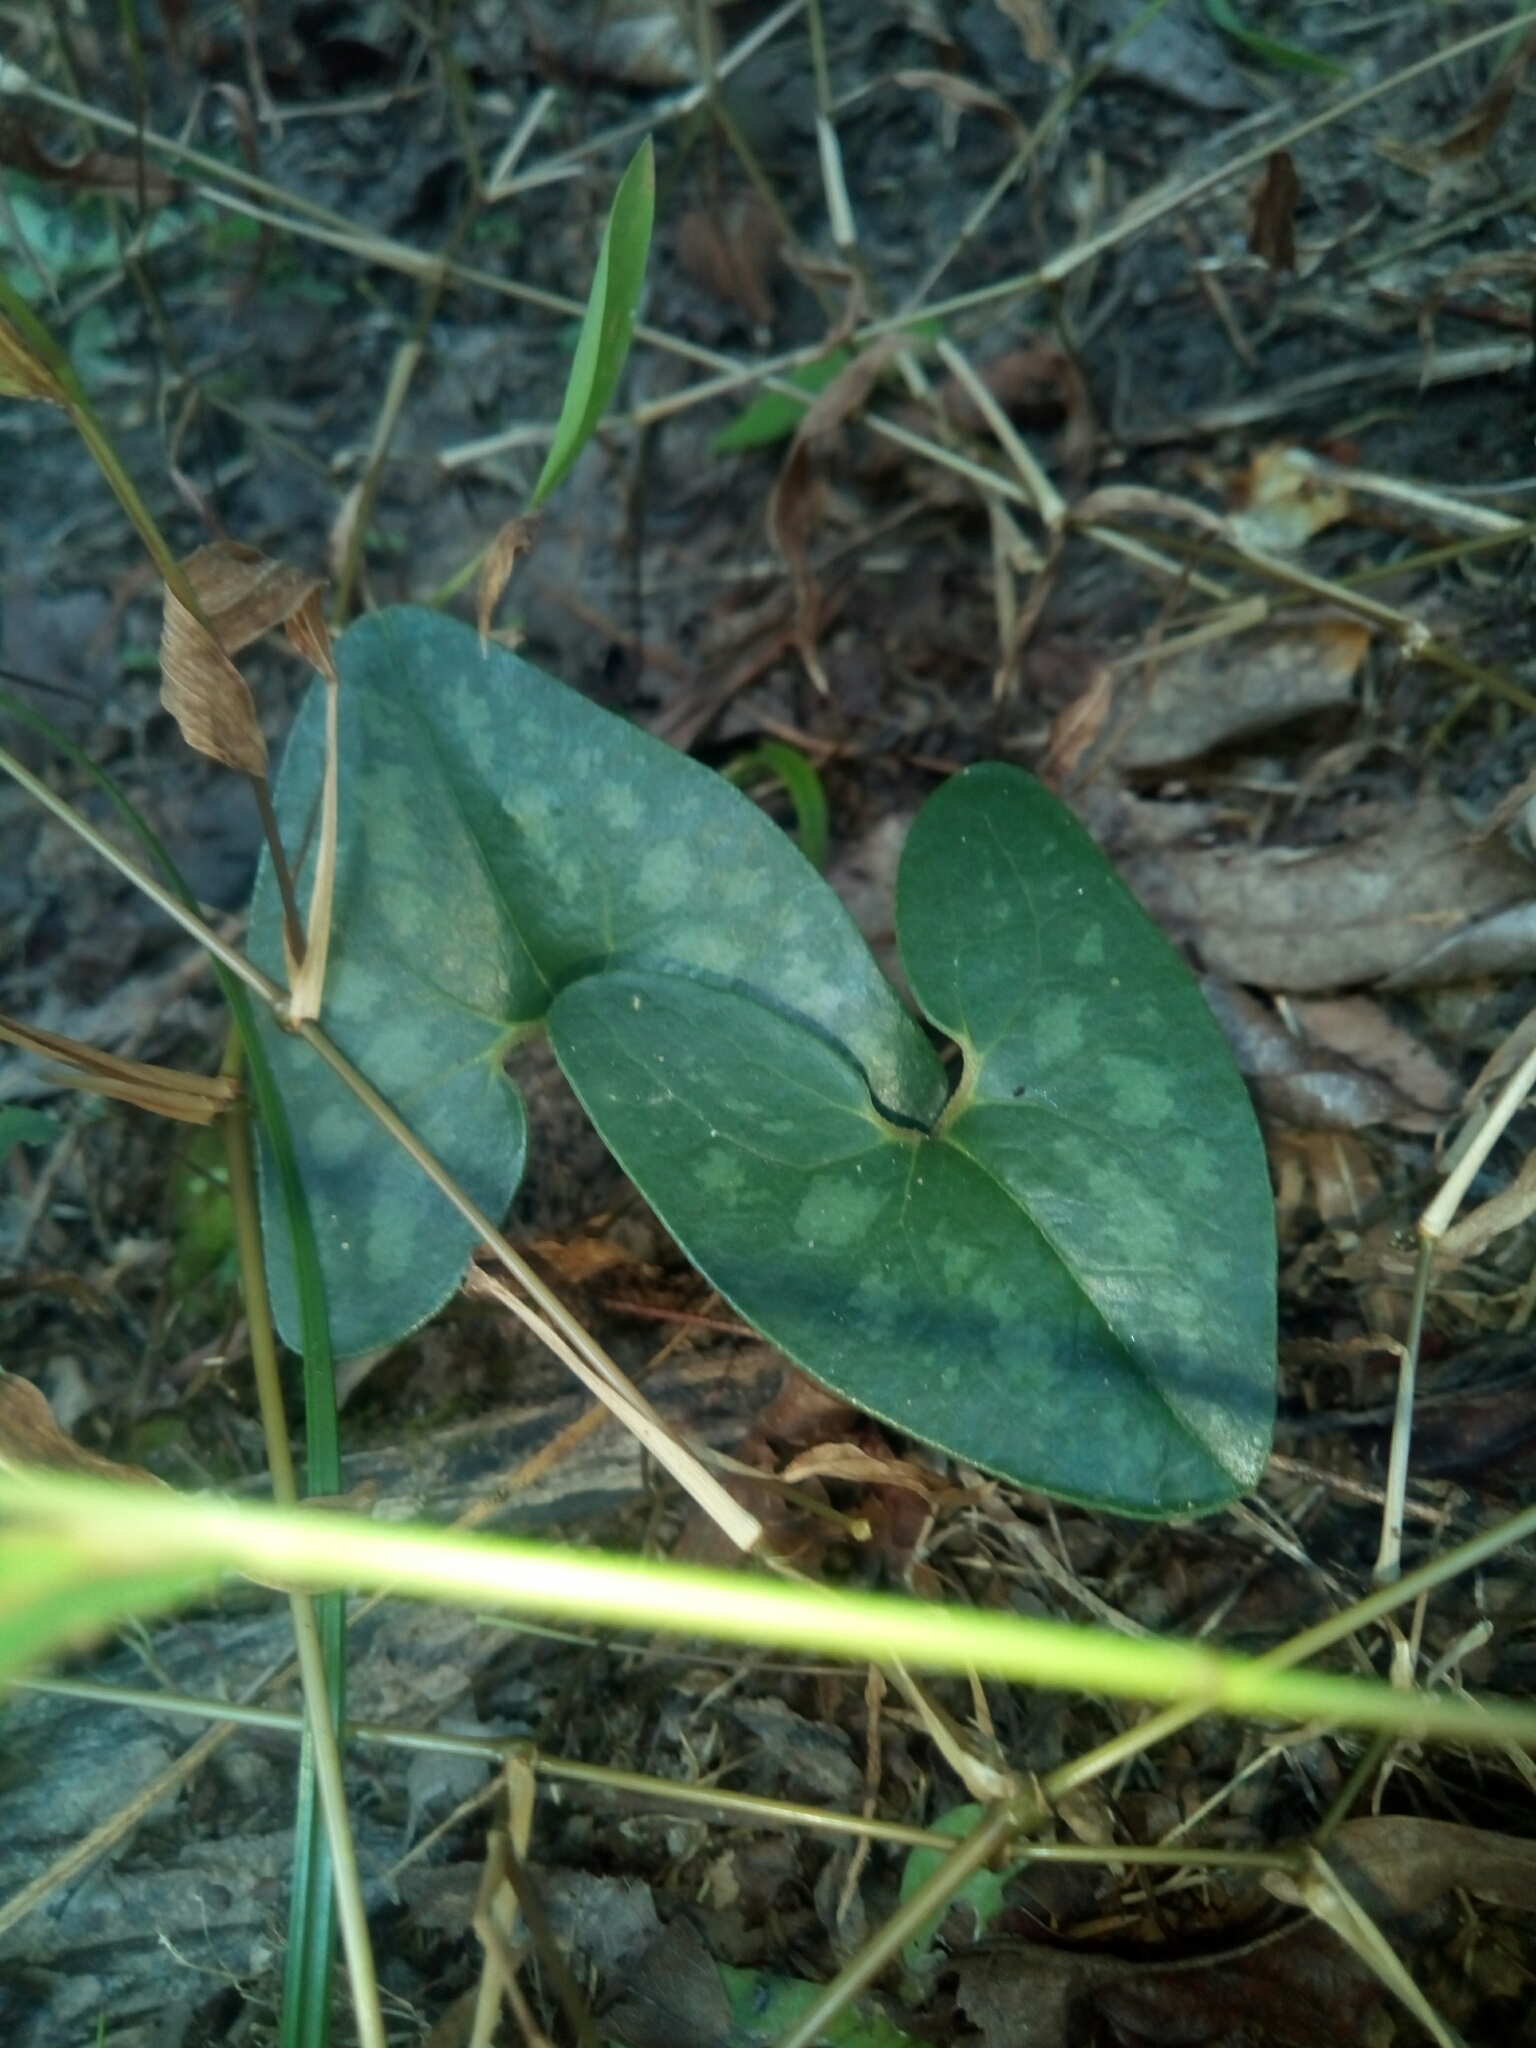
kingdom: Plantae
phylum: Tracheophyta
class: Magnoliopsida
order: Piperales
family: Aristolochiaceae
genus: Hexastylis
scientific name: Hexastylis arifolia
